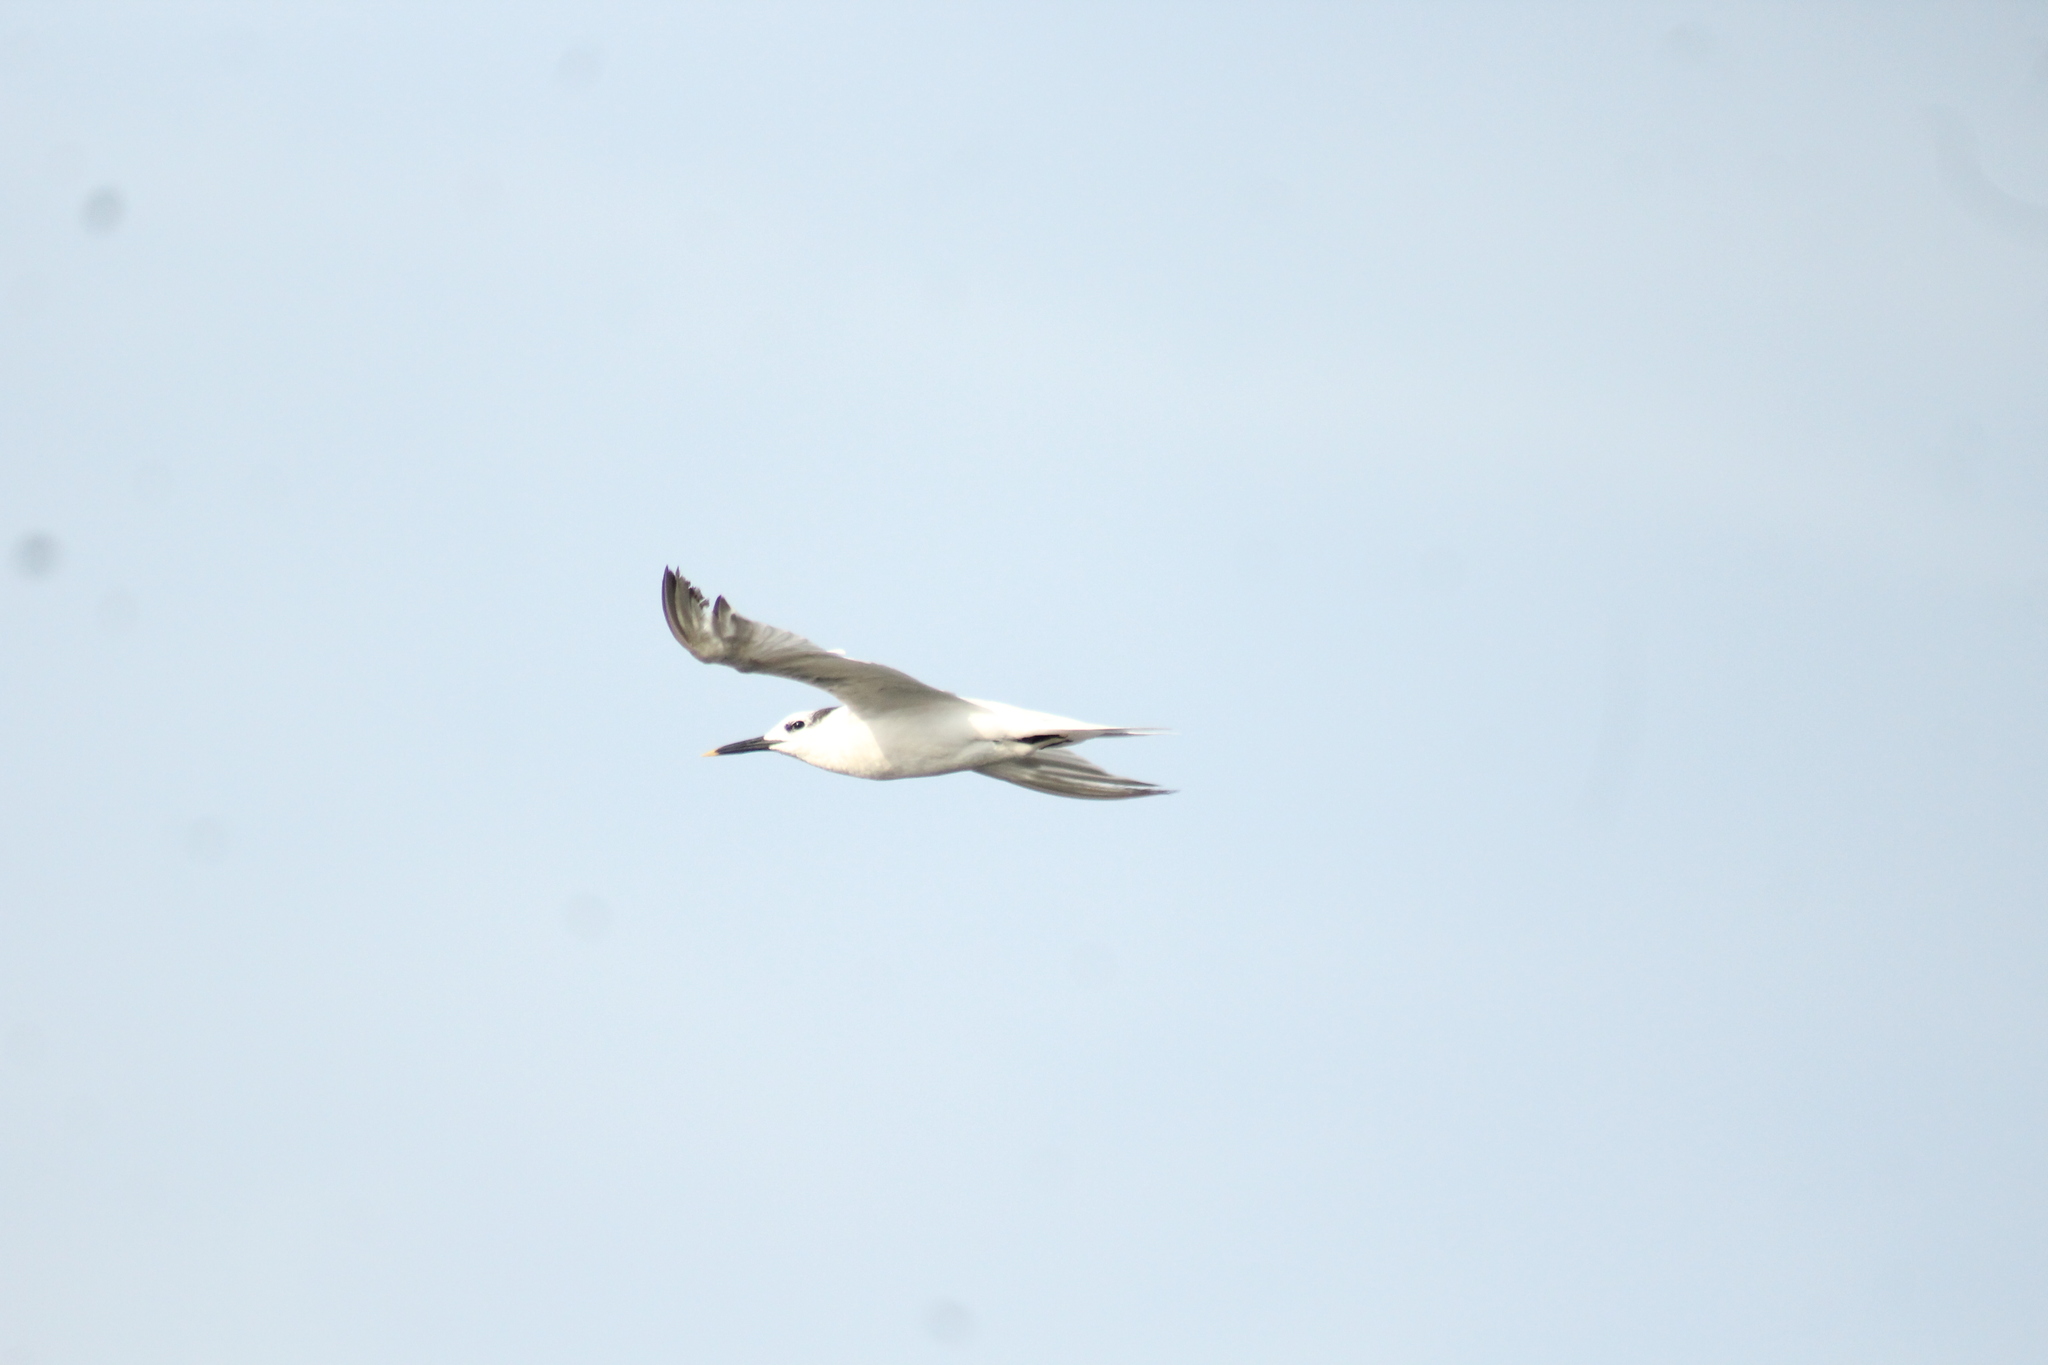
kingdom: Animalia
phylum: Chordata
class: Aves
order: Charadriiformes
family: Laridae
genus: Thalasseus
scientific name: Thalasseus sandvicensis
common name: Sandwich tern
